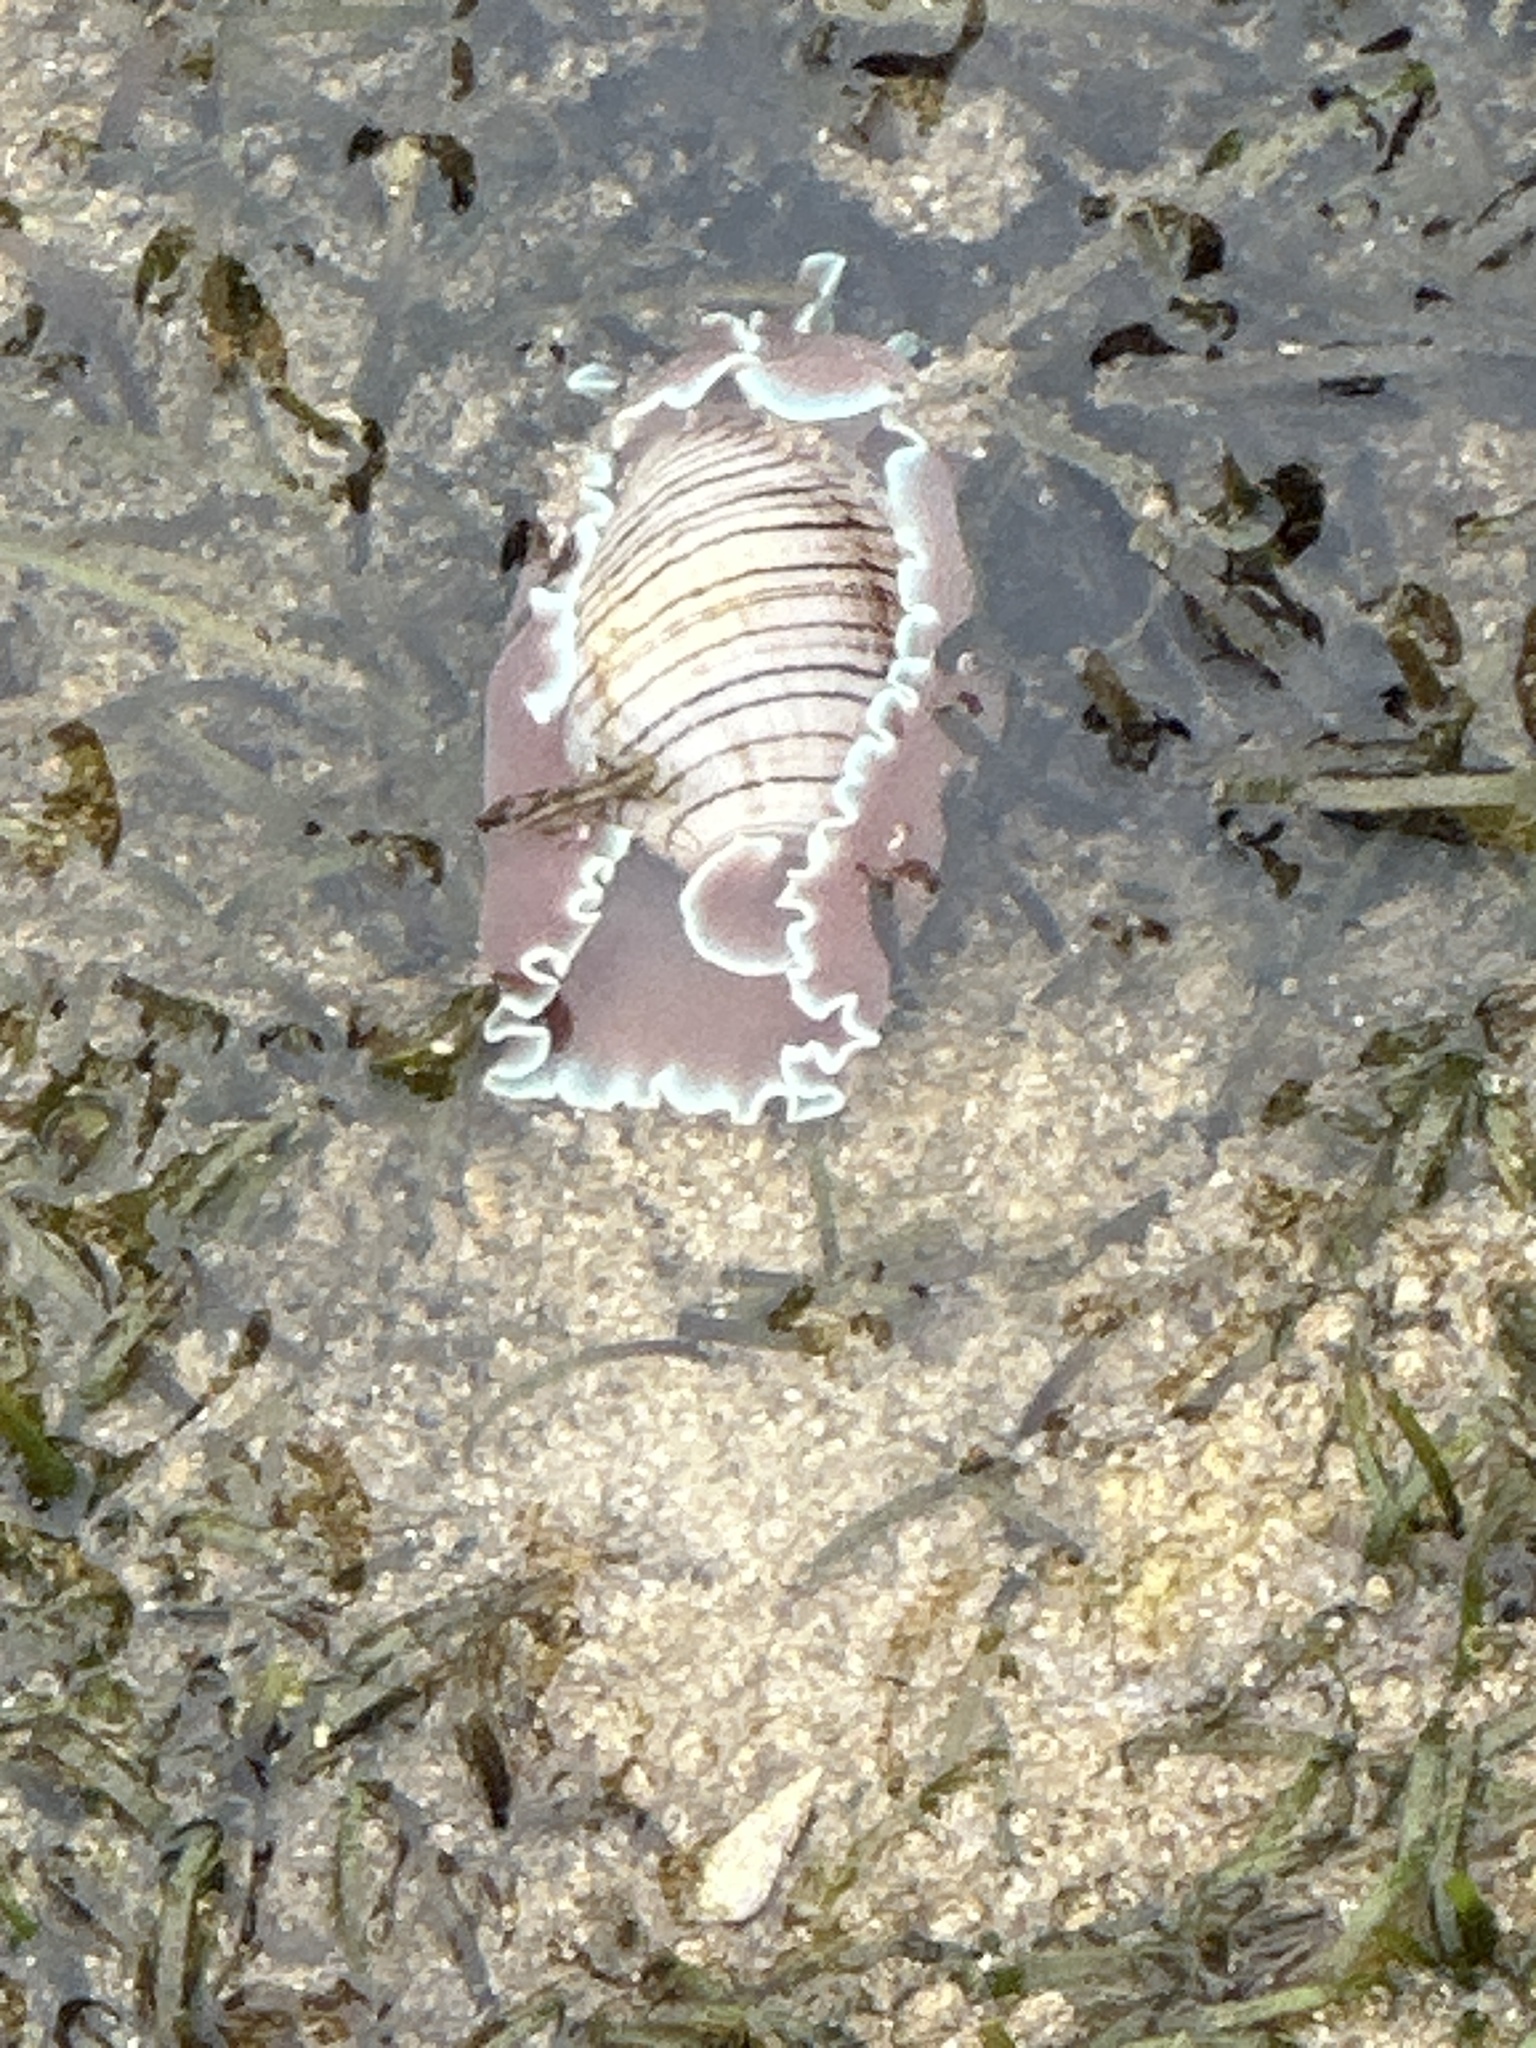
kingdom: Animalia
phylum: Mollusca
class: Gastropoda
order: Cephalaspidea
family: Aplustridae
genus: Hydatina
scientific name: Hydatina physis
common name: Brown-line paperbubble
